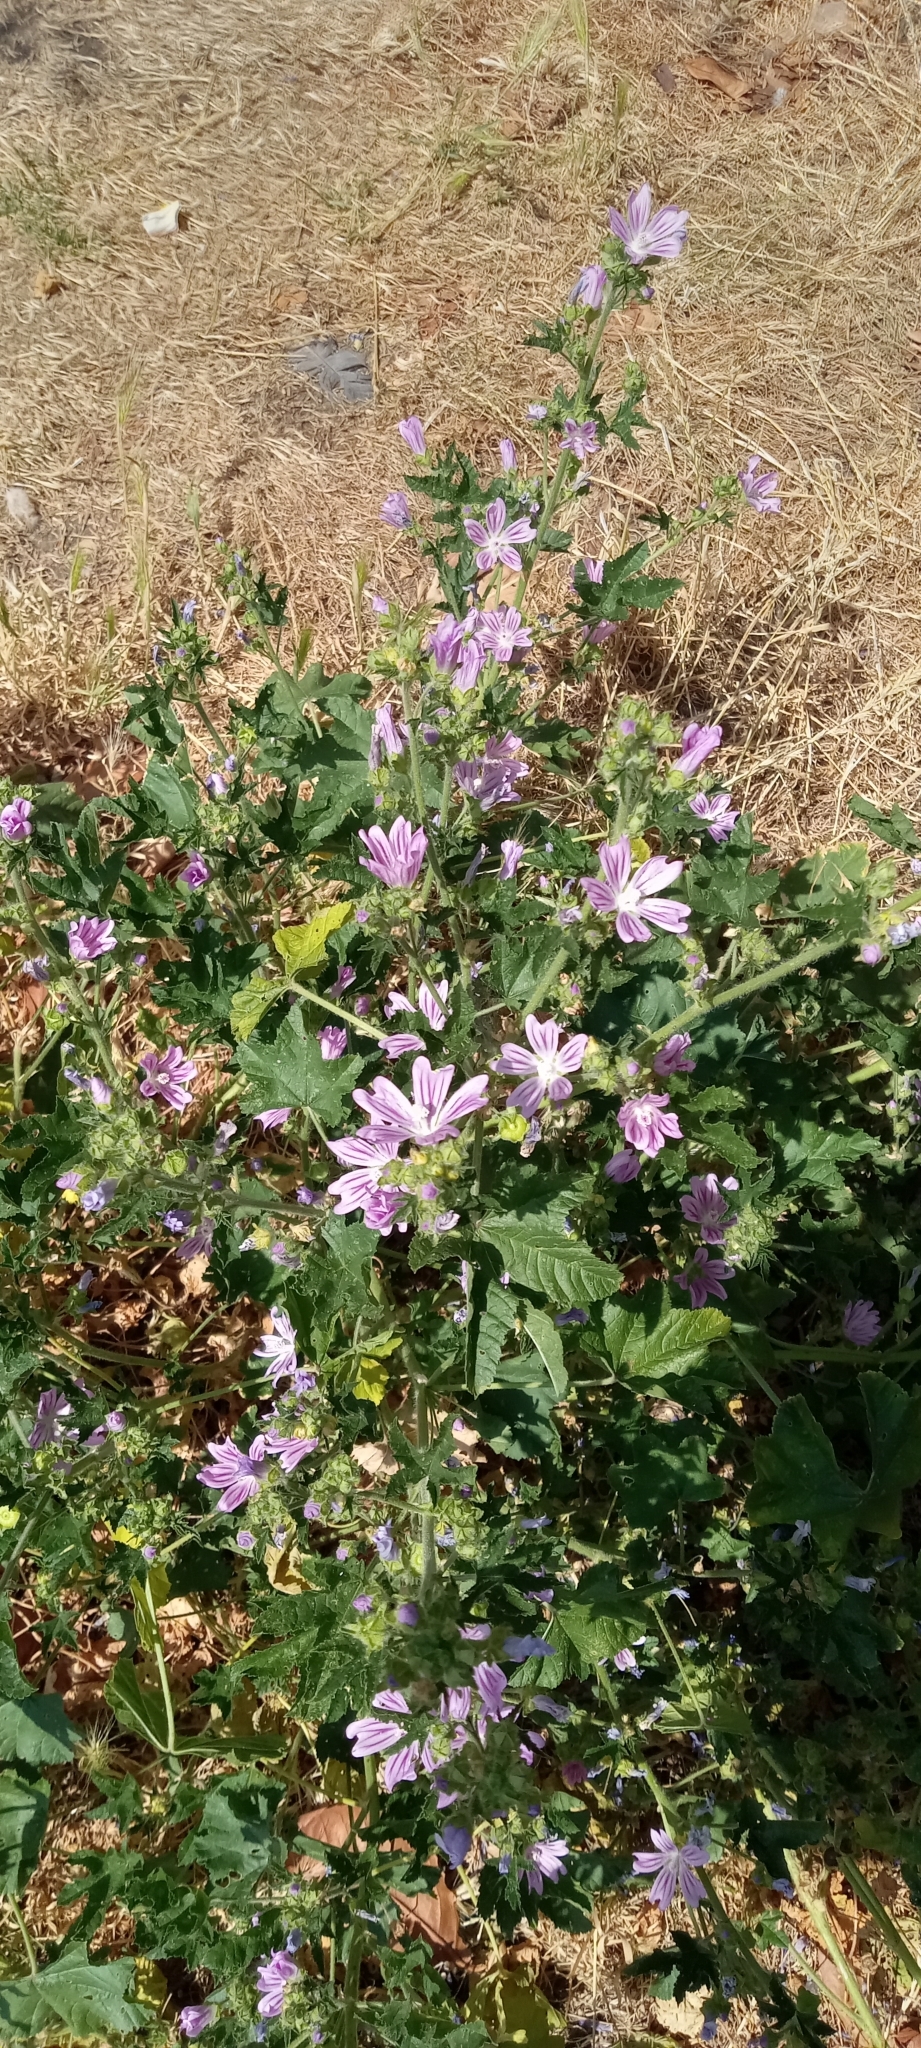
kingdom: Plantae
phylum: Tracheophyta
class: Magnoliopsida
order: Malvales
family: Malvaceae
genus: Malva
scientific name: Malva sylvestris
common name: Common mallow
